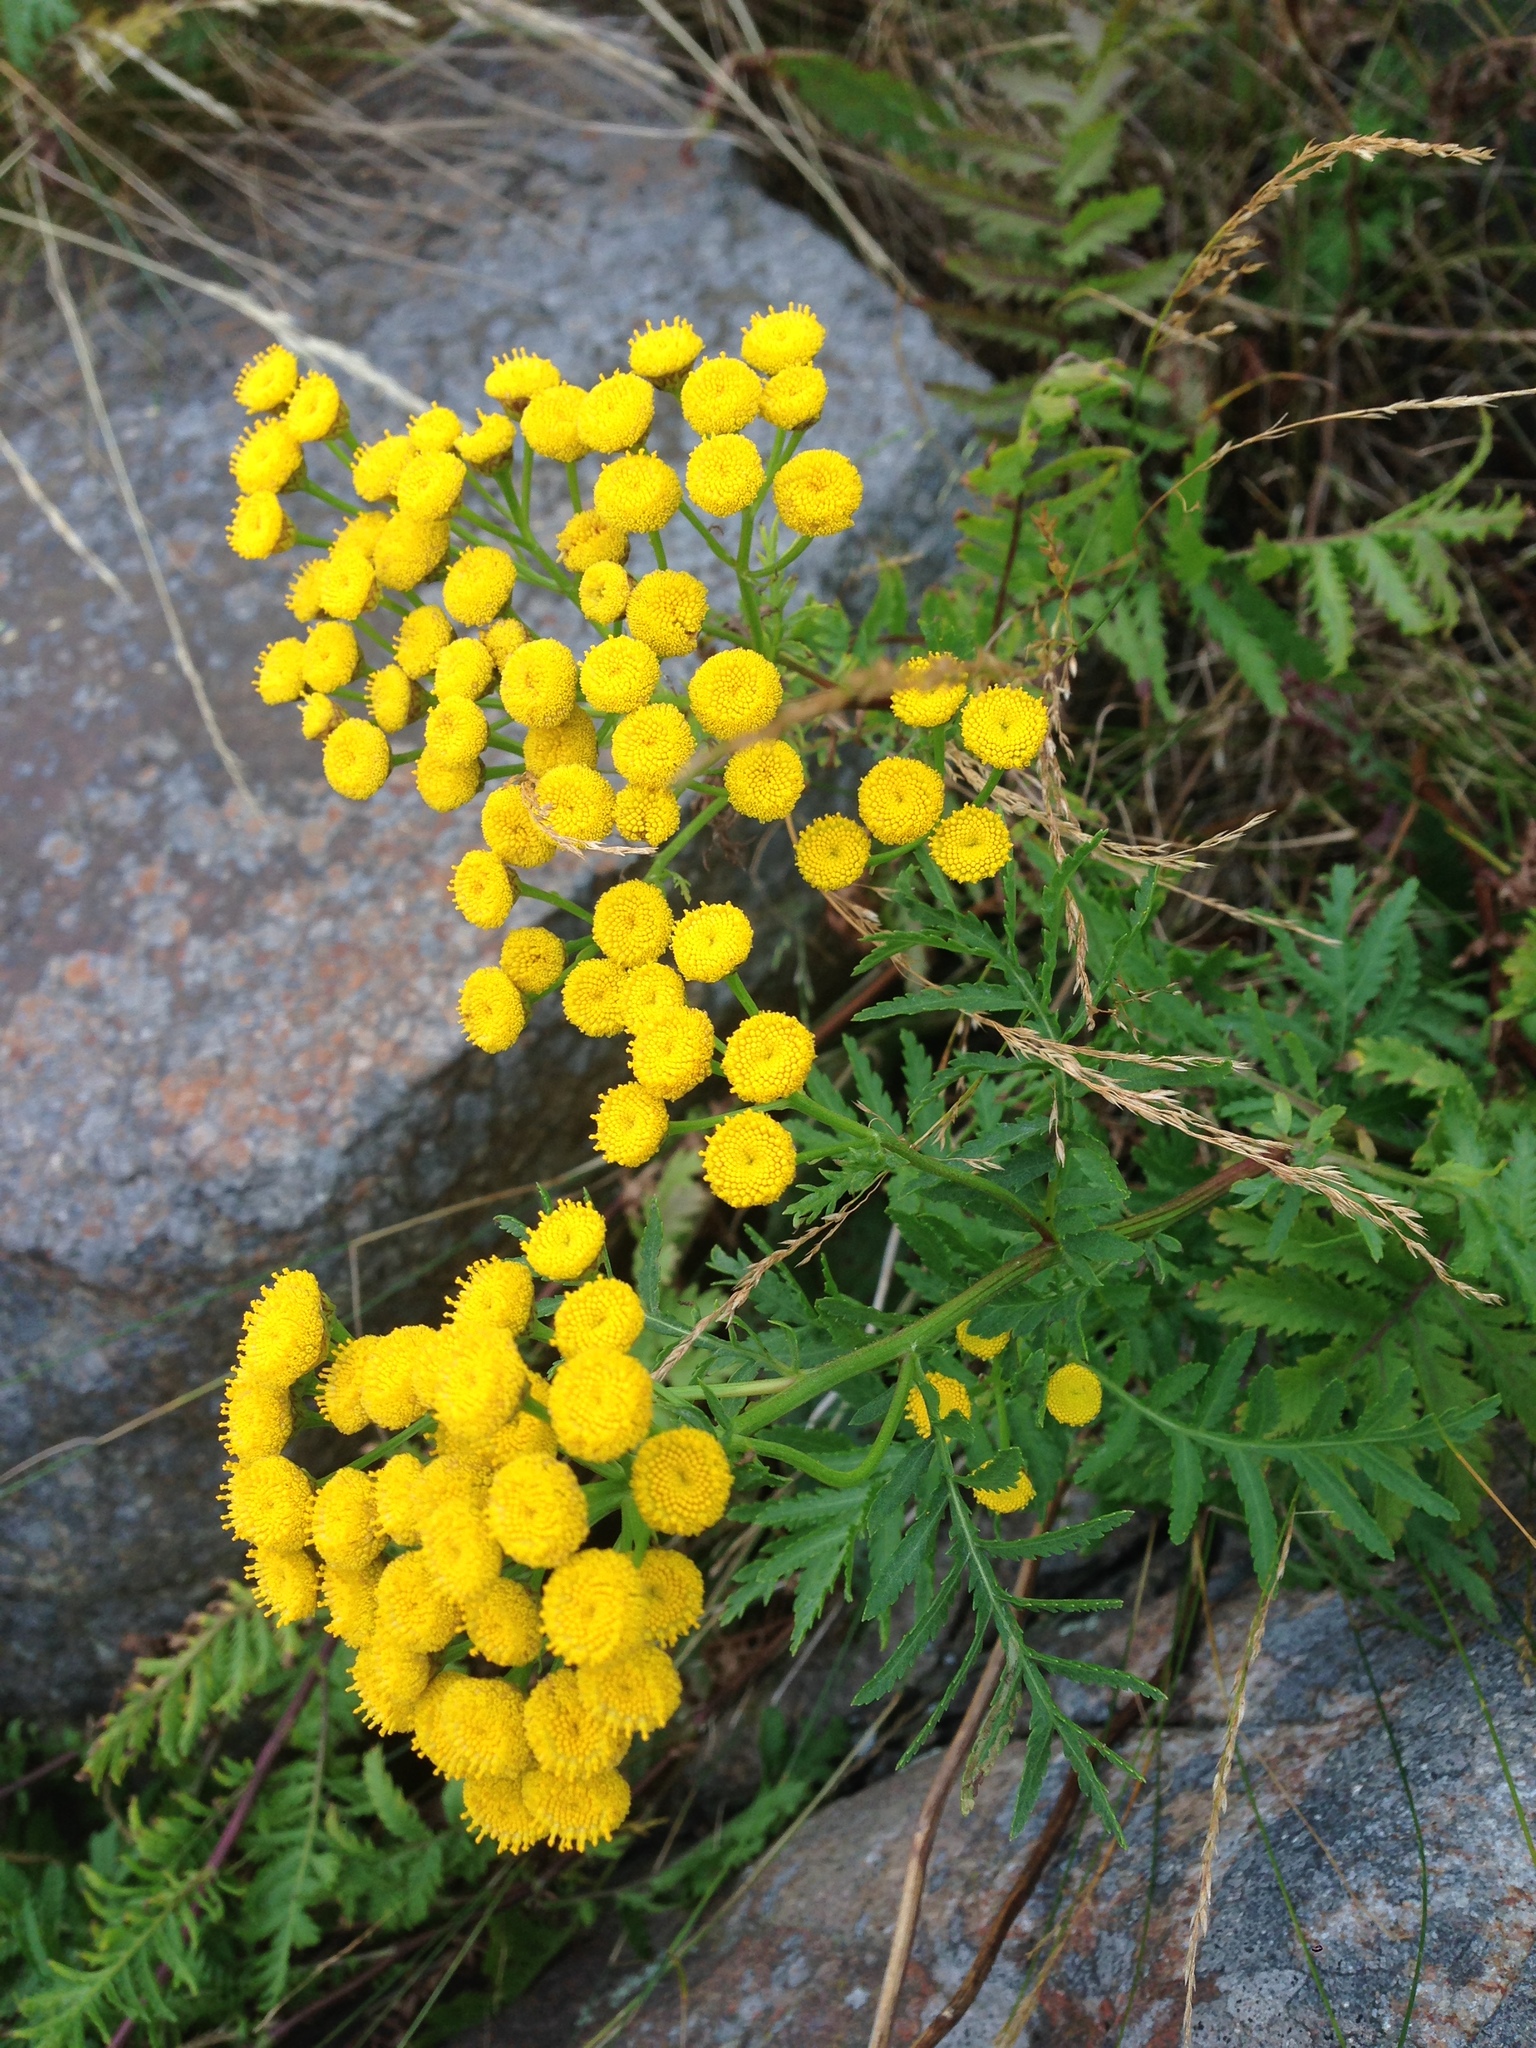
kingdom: Plantae
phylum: Tracheophyta
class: Magnoliopsida
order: Asterales
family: Asteraceae
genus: Tanacetum
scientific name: Tanacetum vulgare
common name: Common tansy
